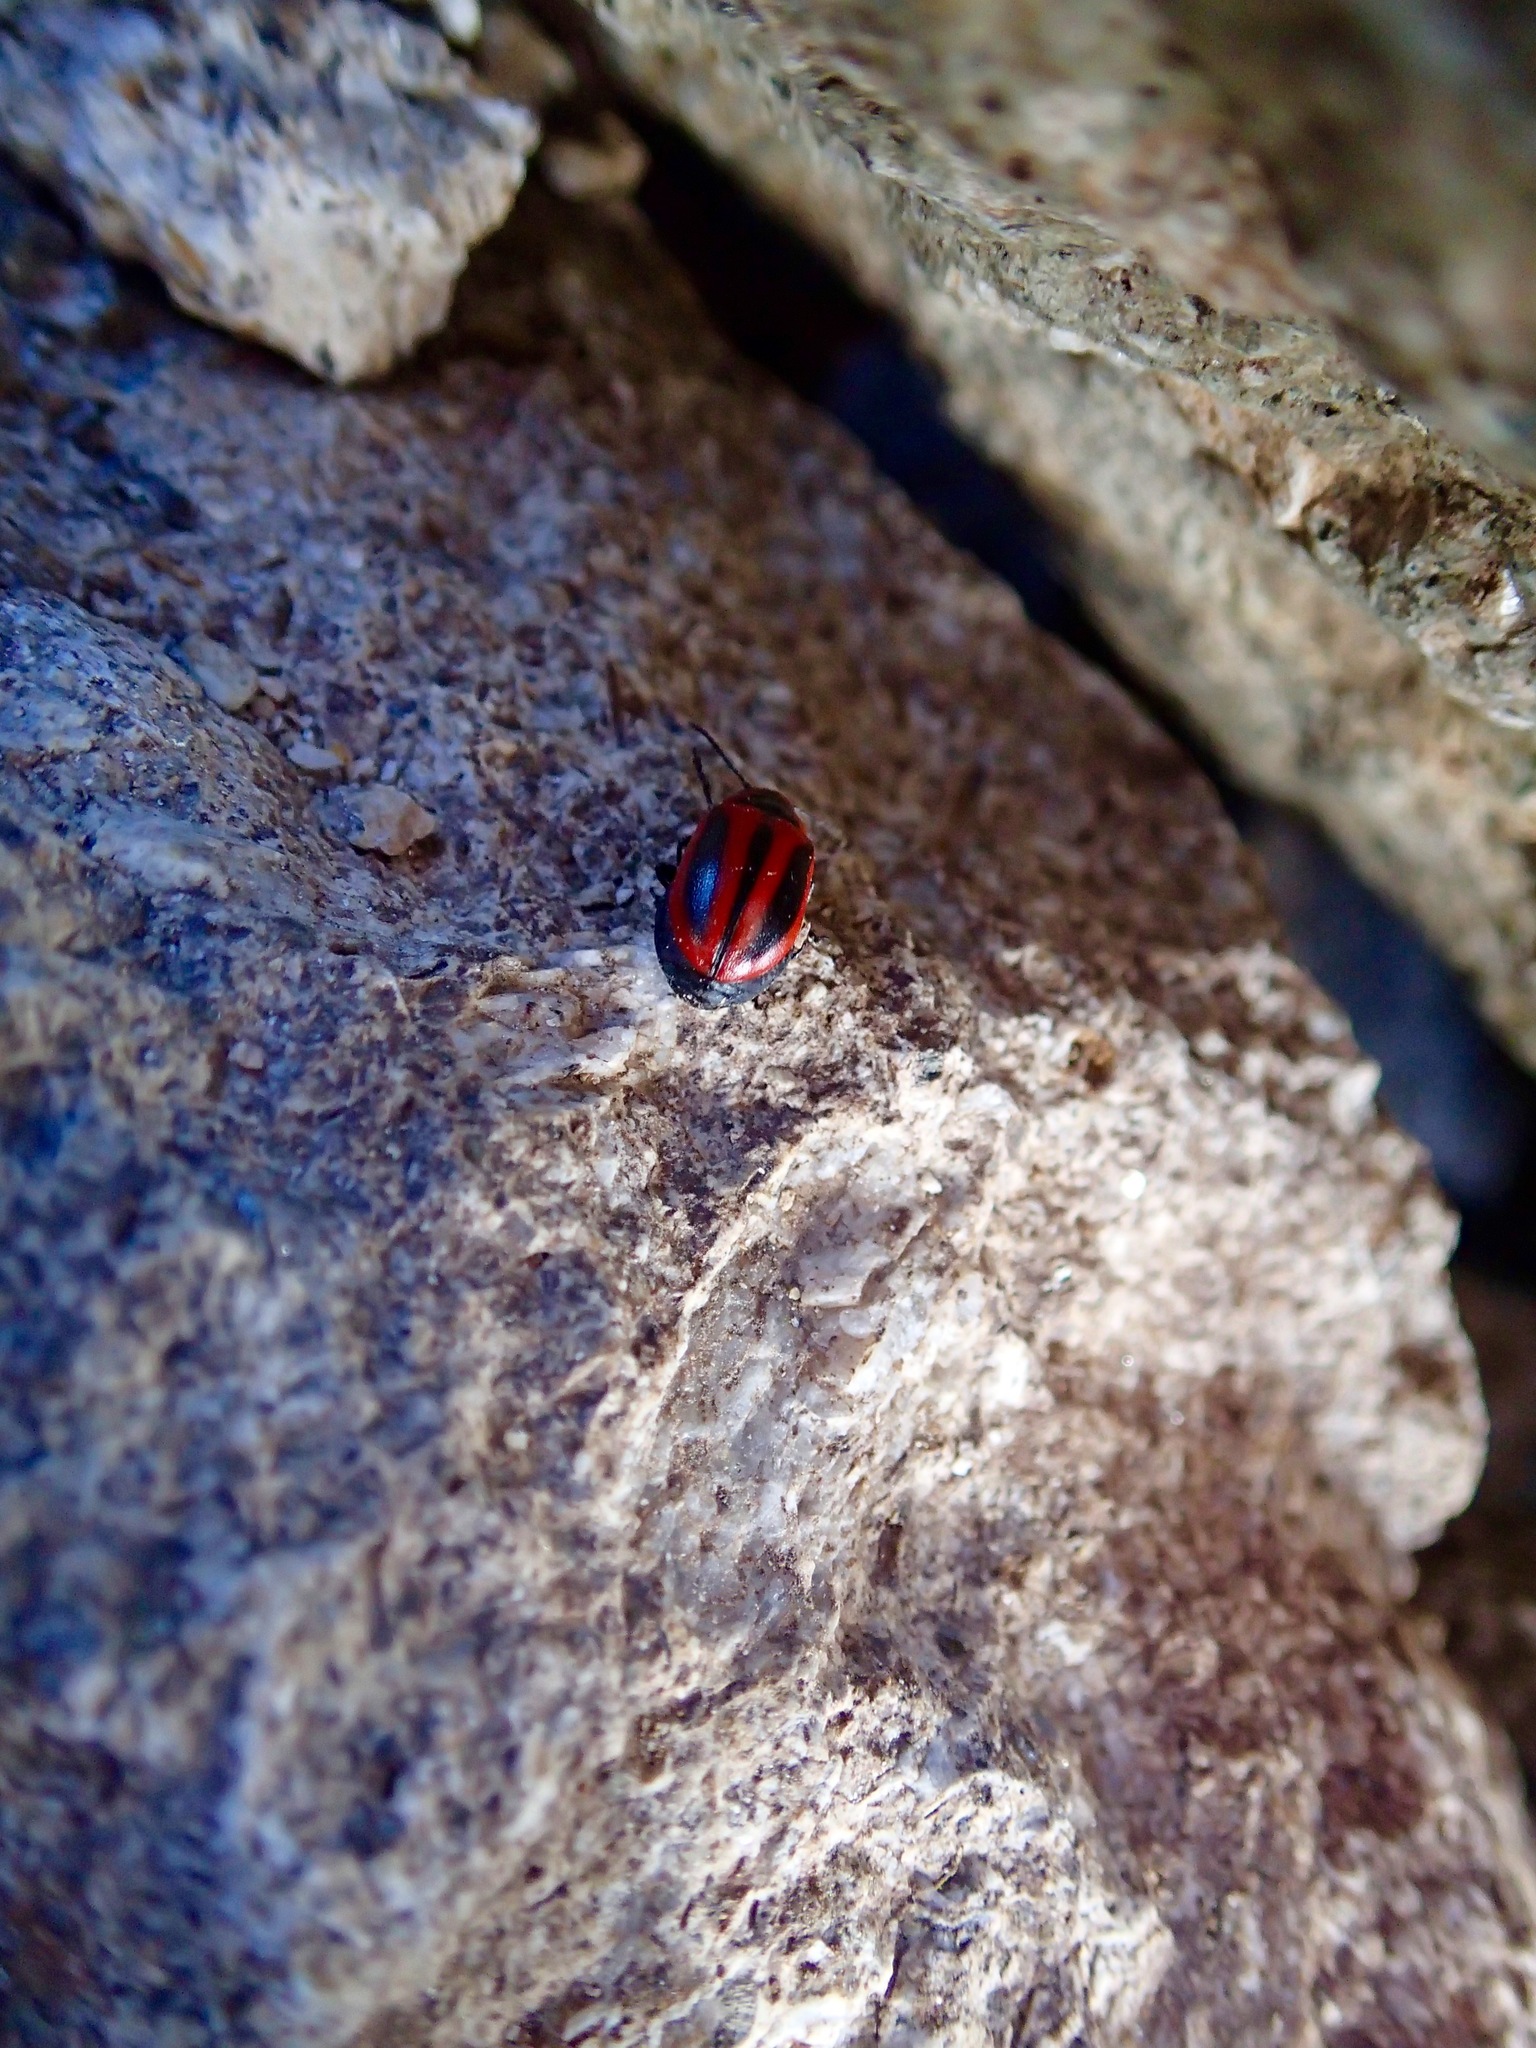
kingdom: Animalia
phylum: Arthropoda
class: Insecta
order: Coleoptera
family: Chrysomelidae
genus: Entomoscelis
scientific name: Entomoscelis americana
